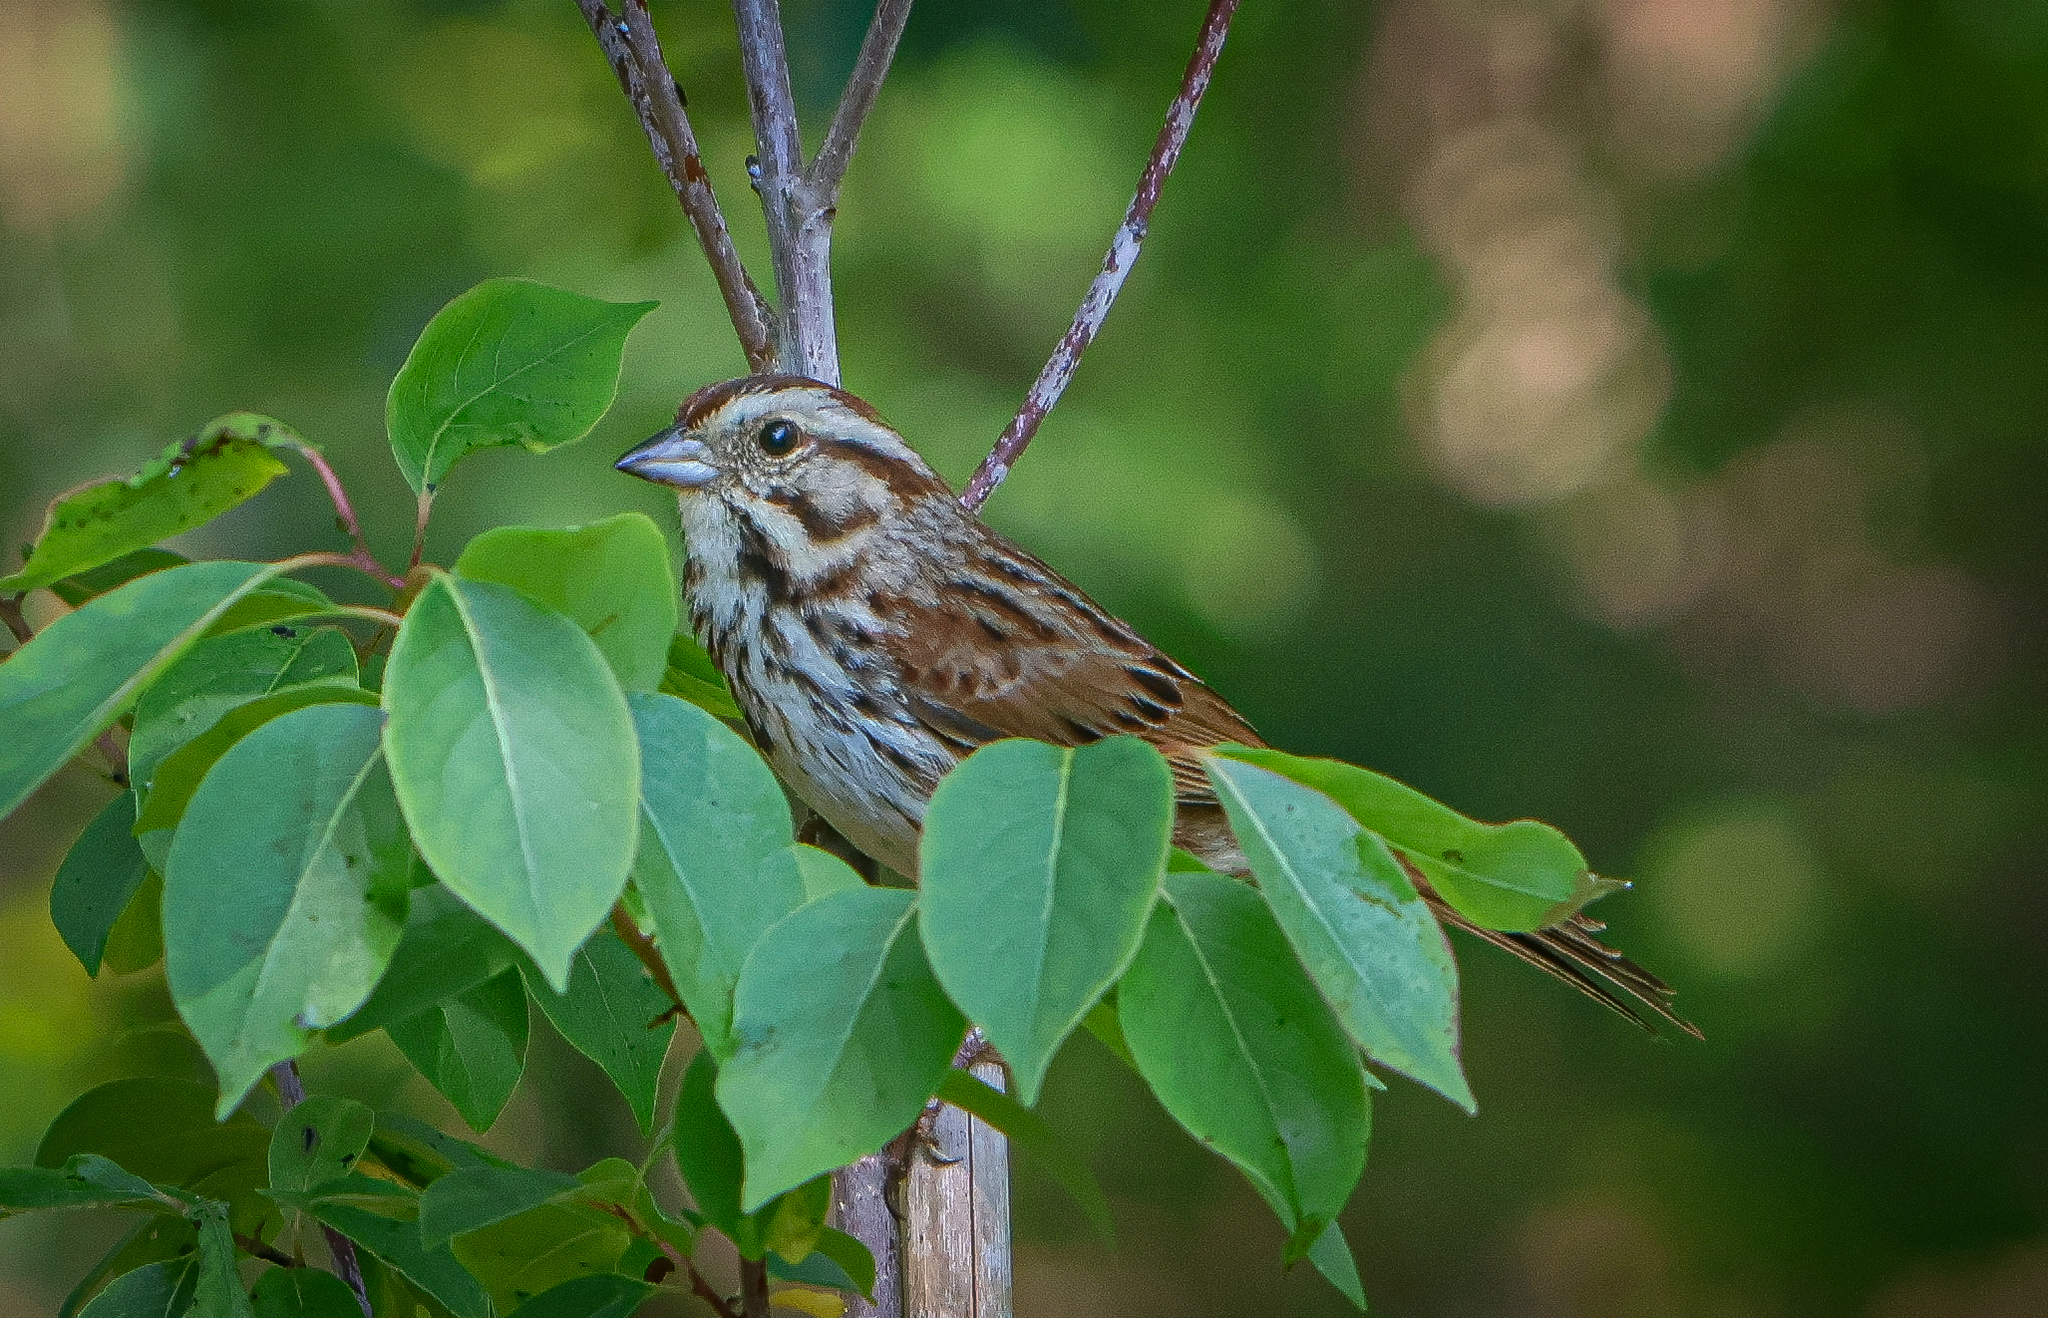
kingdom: Animalia
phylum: Chordata
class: Aves
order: Passeriformes
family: Passerellidae
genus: Melospiza
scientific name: Melospiza melodia
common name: Song sparrow
